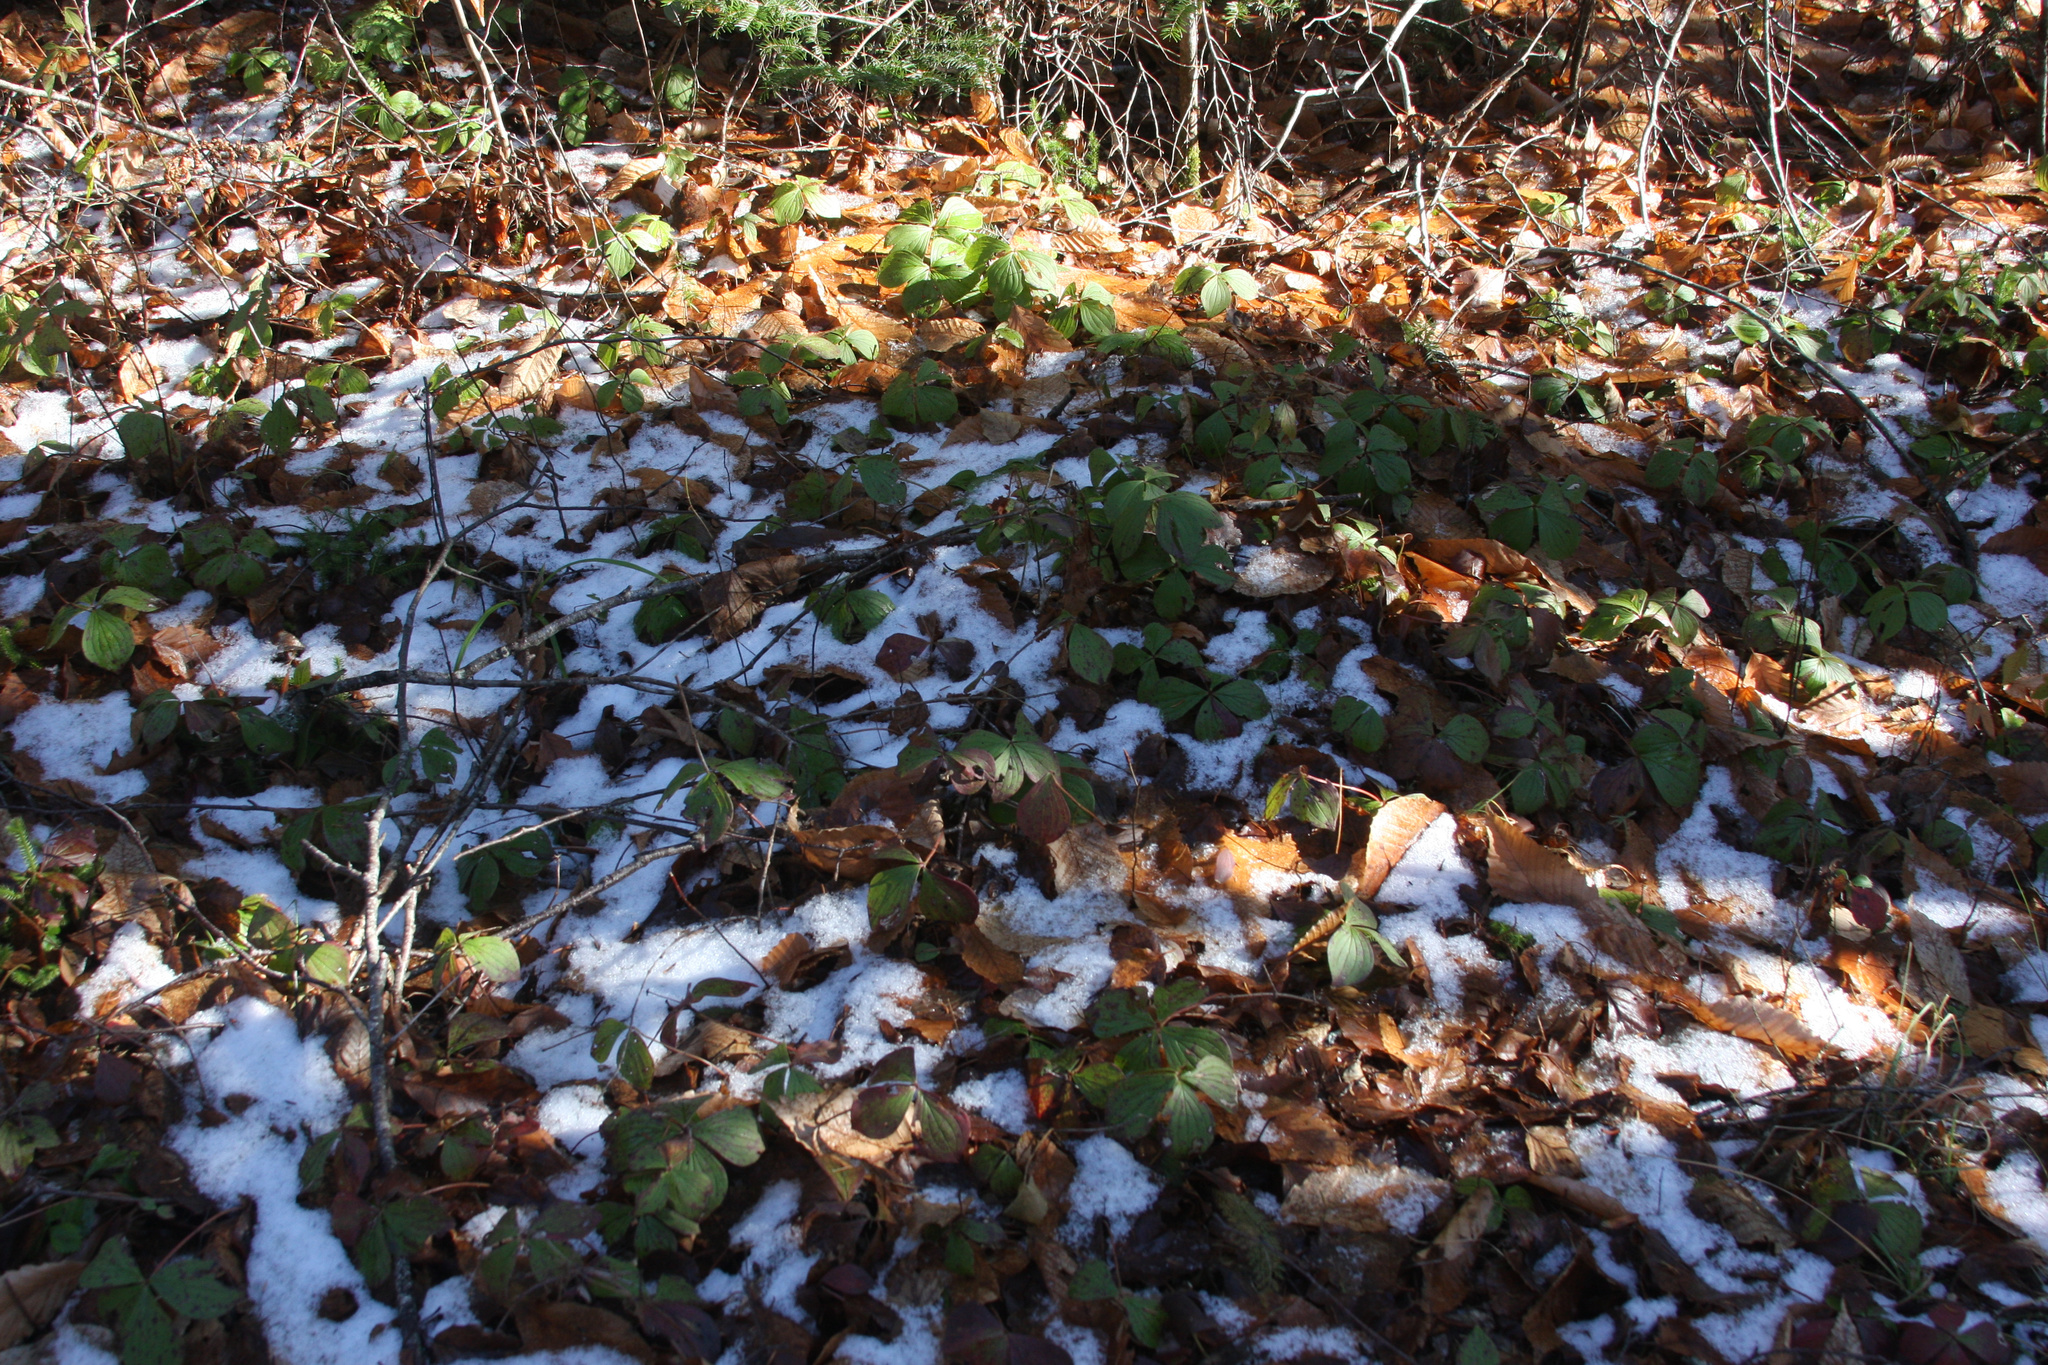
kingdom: Plantae
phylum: Tracheophyta
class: Magnoliopsida
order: Cornales
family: Cornaceae
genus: Cornus
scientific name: Cornus canadensis
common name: Creeping dogwood
